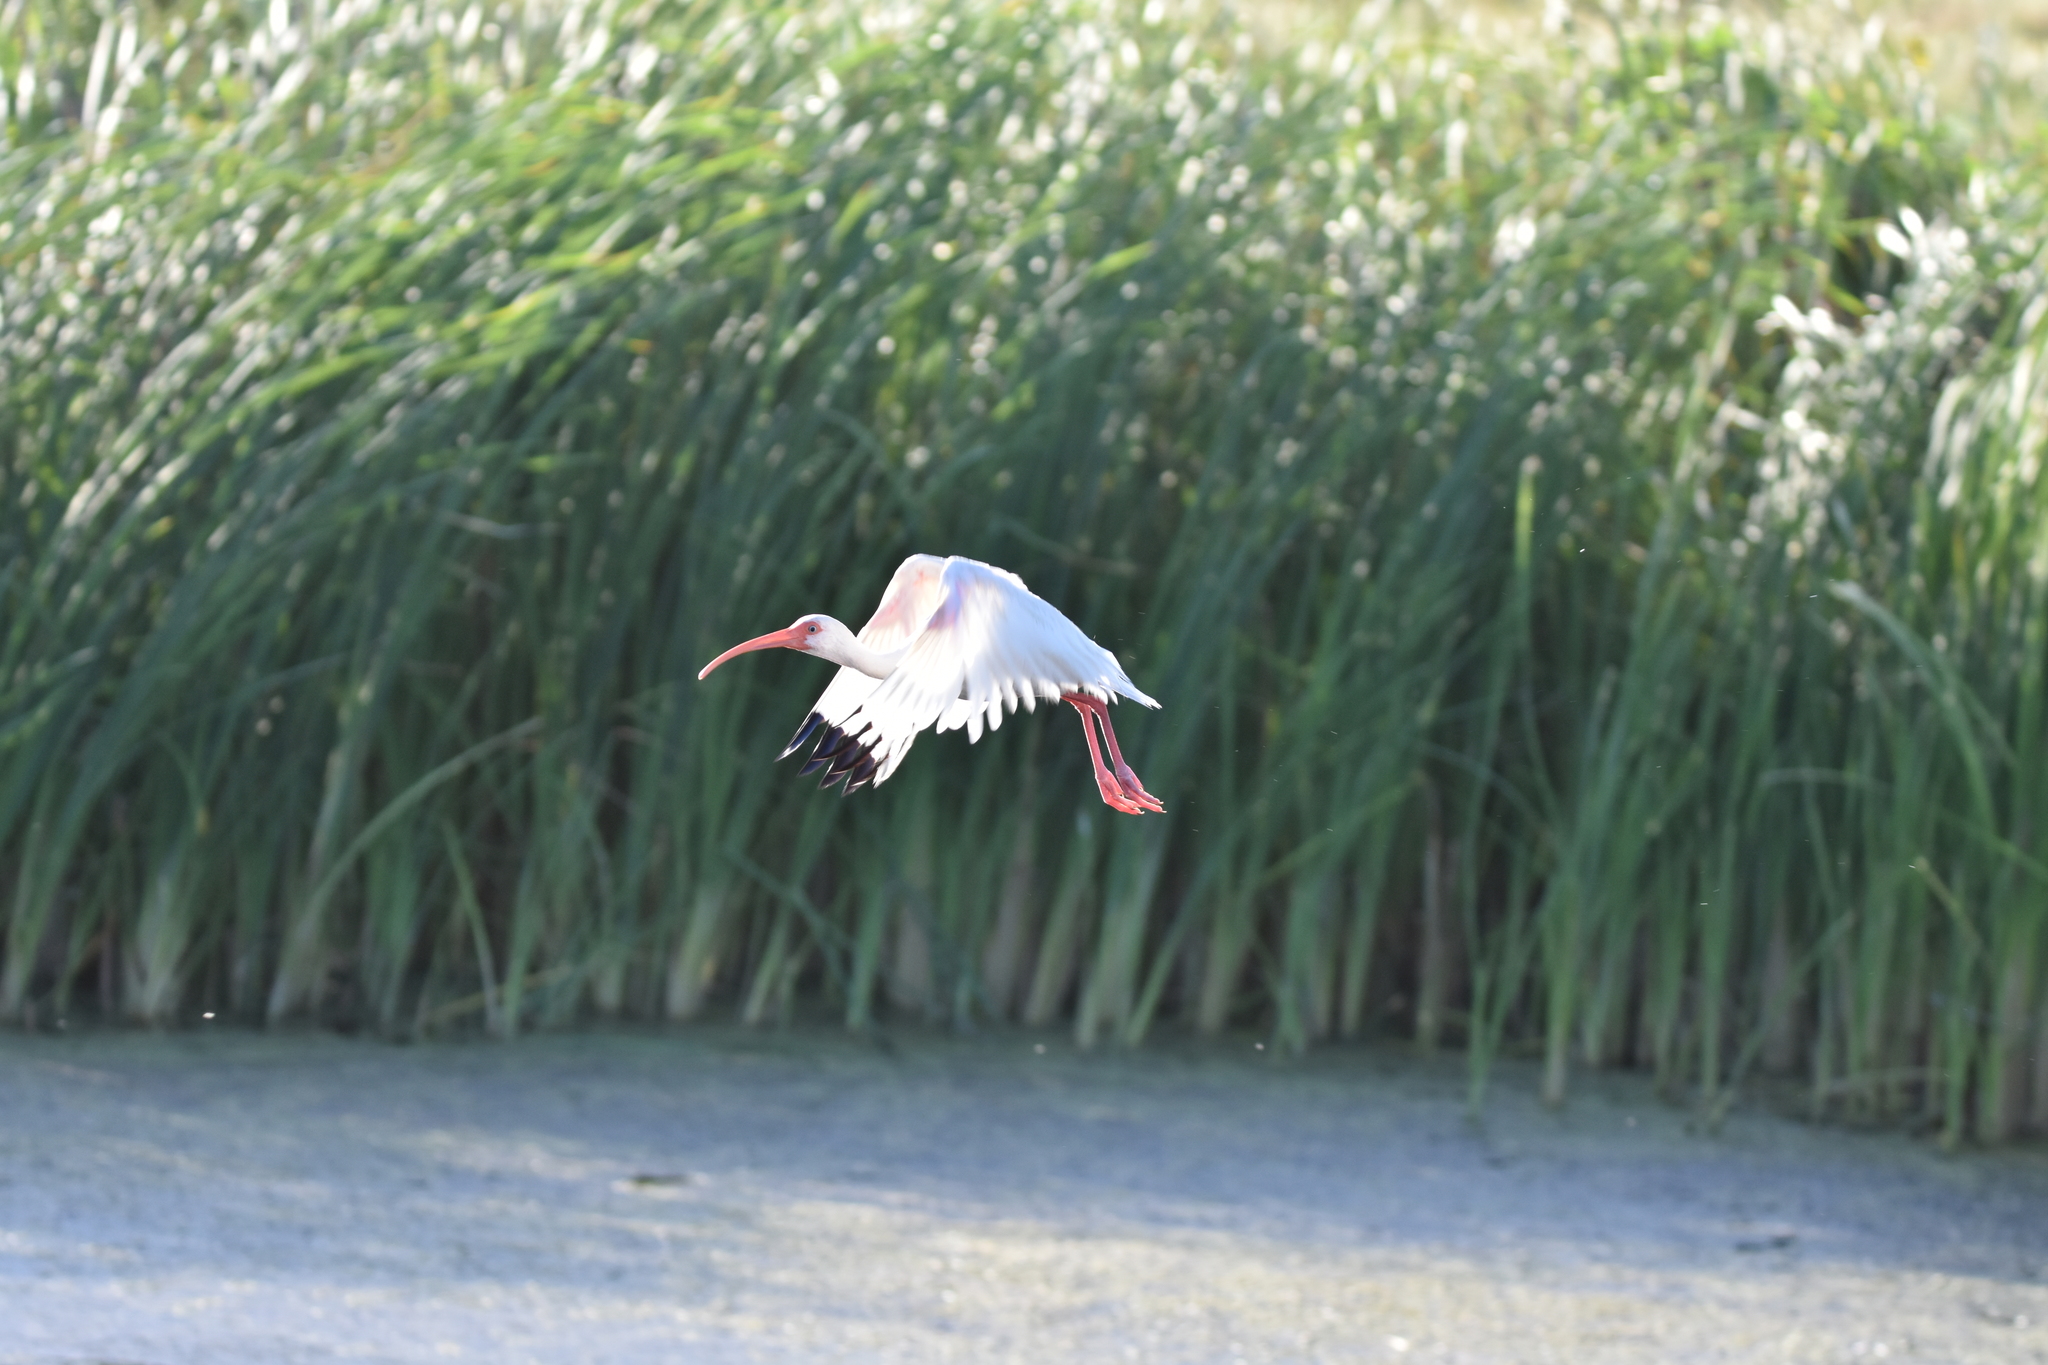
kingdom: Animalia
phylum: Chordata
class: Aves
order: Pelecaniformes
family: Threskiornithidae
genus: Eudocimus
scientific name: Eudocimus albus
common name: White ibis
